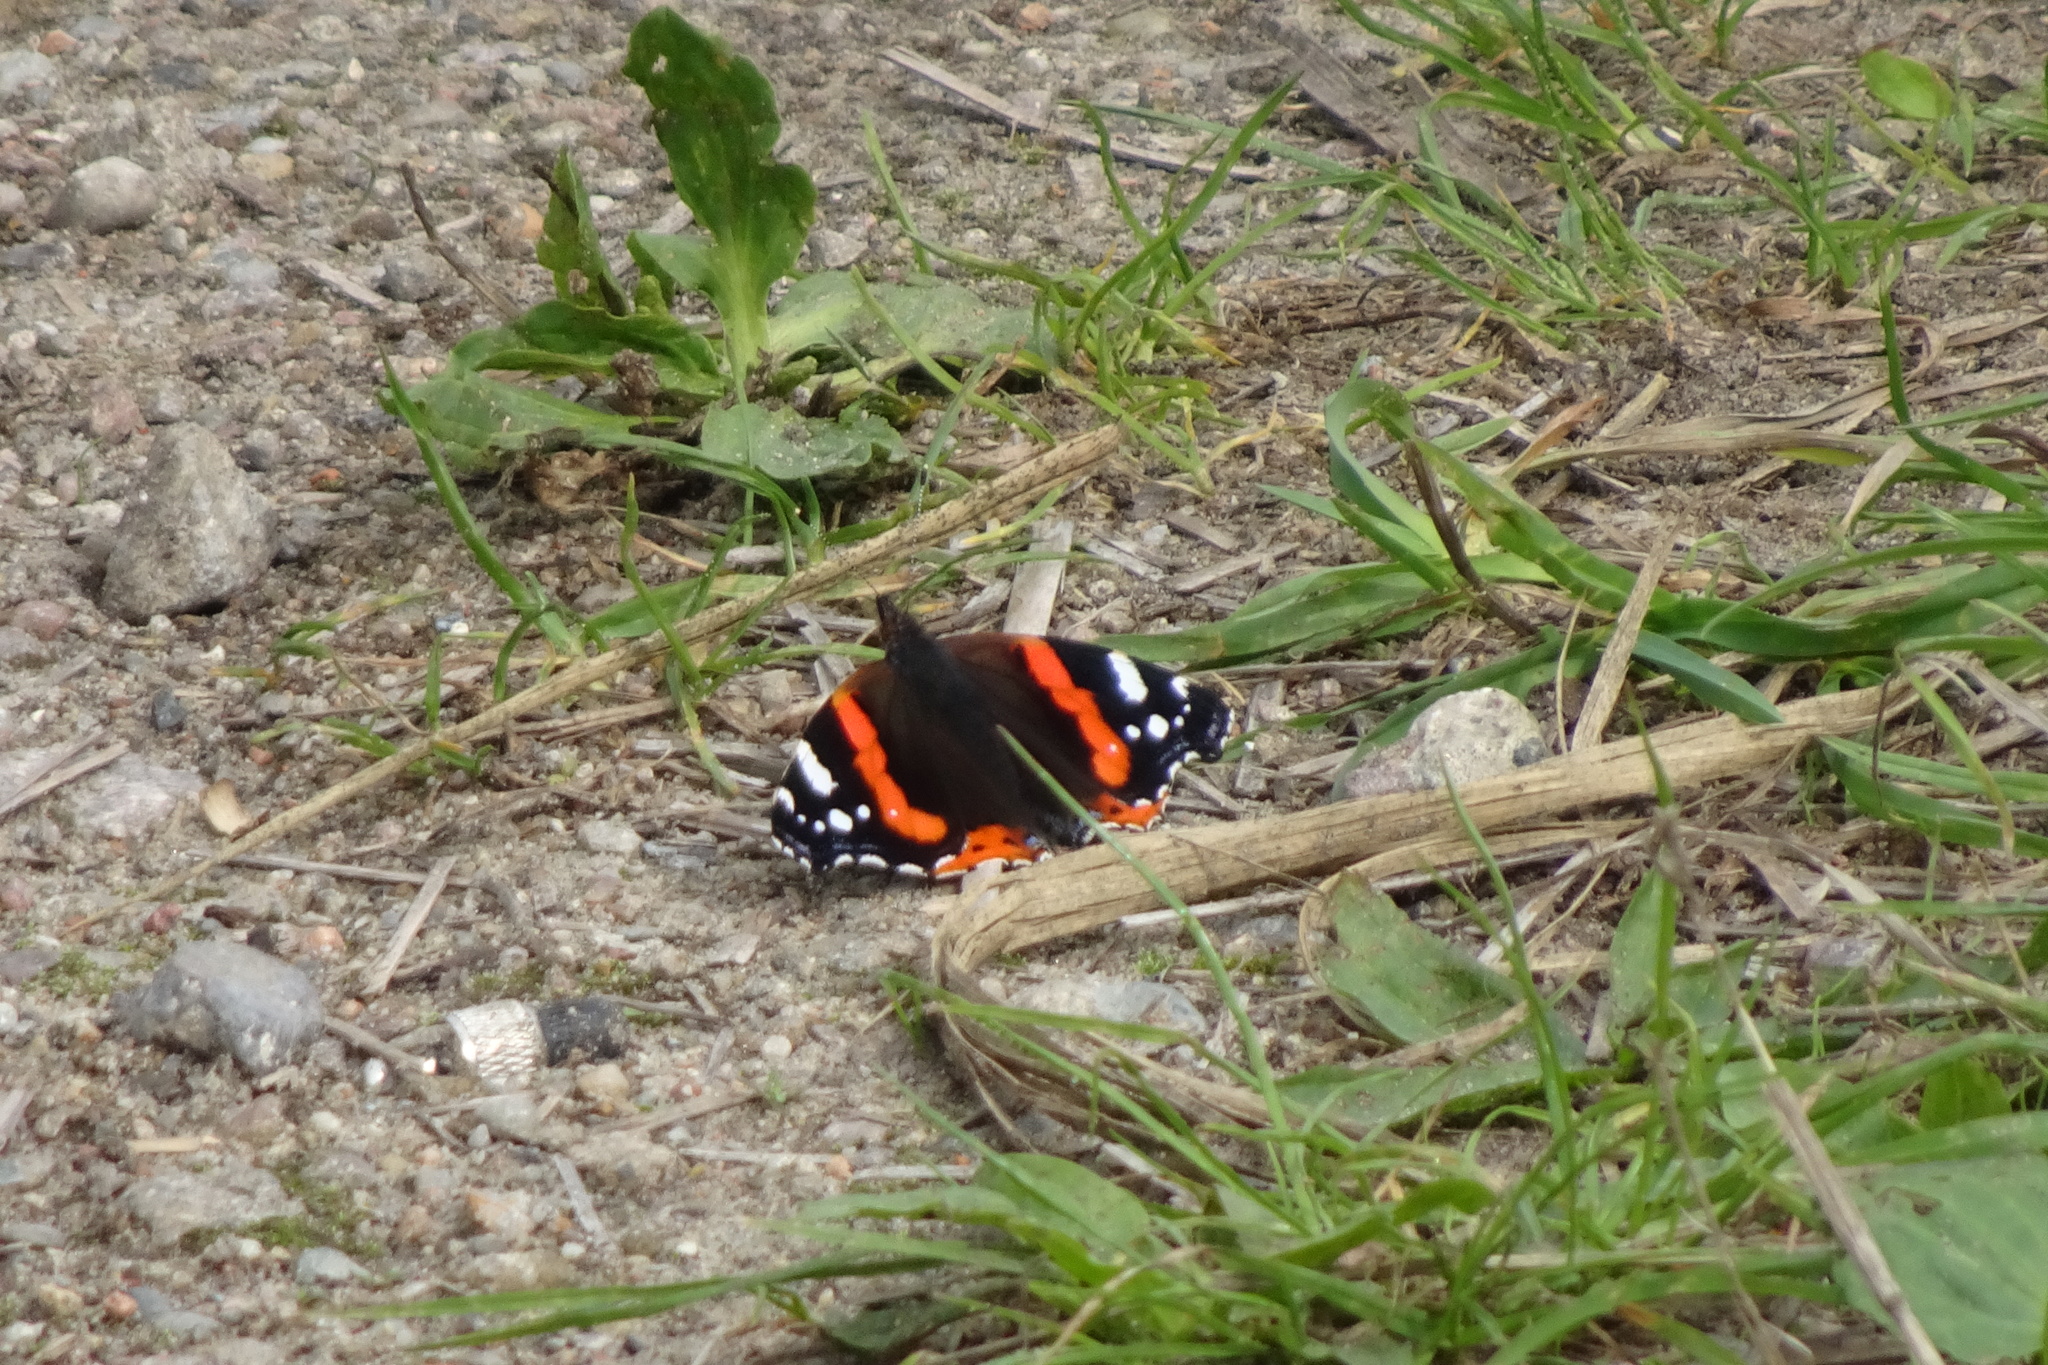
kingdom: Animalia
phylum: Arthropoda
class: Insecta
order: Lepidoptera
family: Nymphalidae
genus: Vanessa
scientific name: Vanessa atalanta
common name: Red admiral
